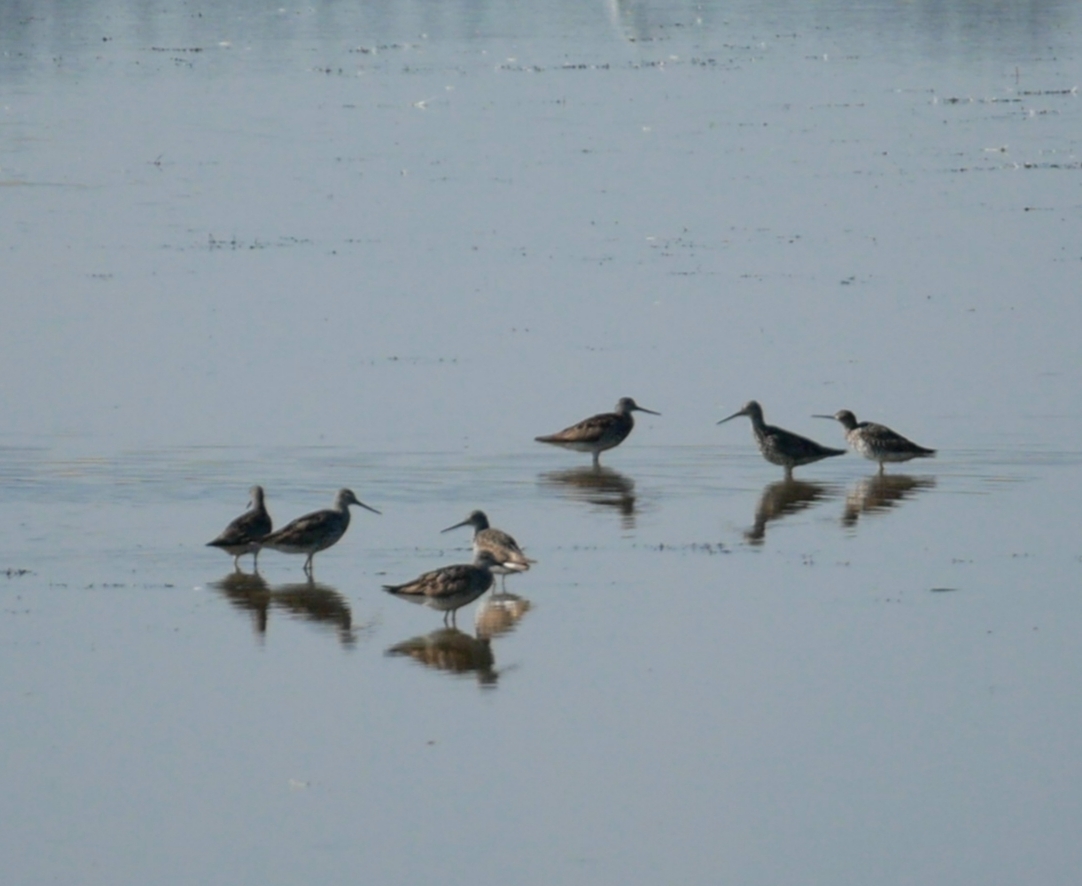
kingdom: Animalia
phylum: Chordata
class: Aves
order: Charadriiformes
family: Scolopacidae
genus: Tringa
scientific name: Tringa melanoleuca
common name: Greater yellowlegs
